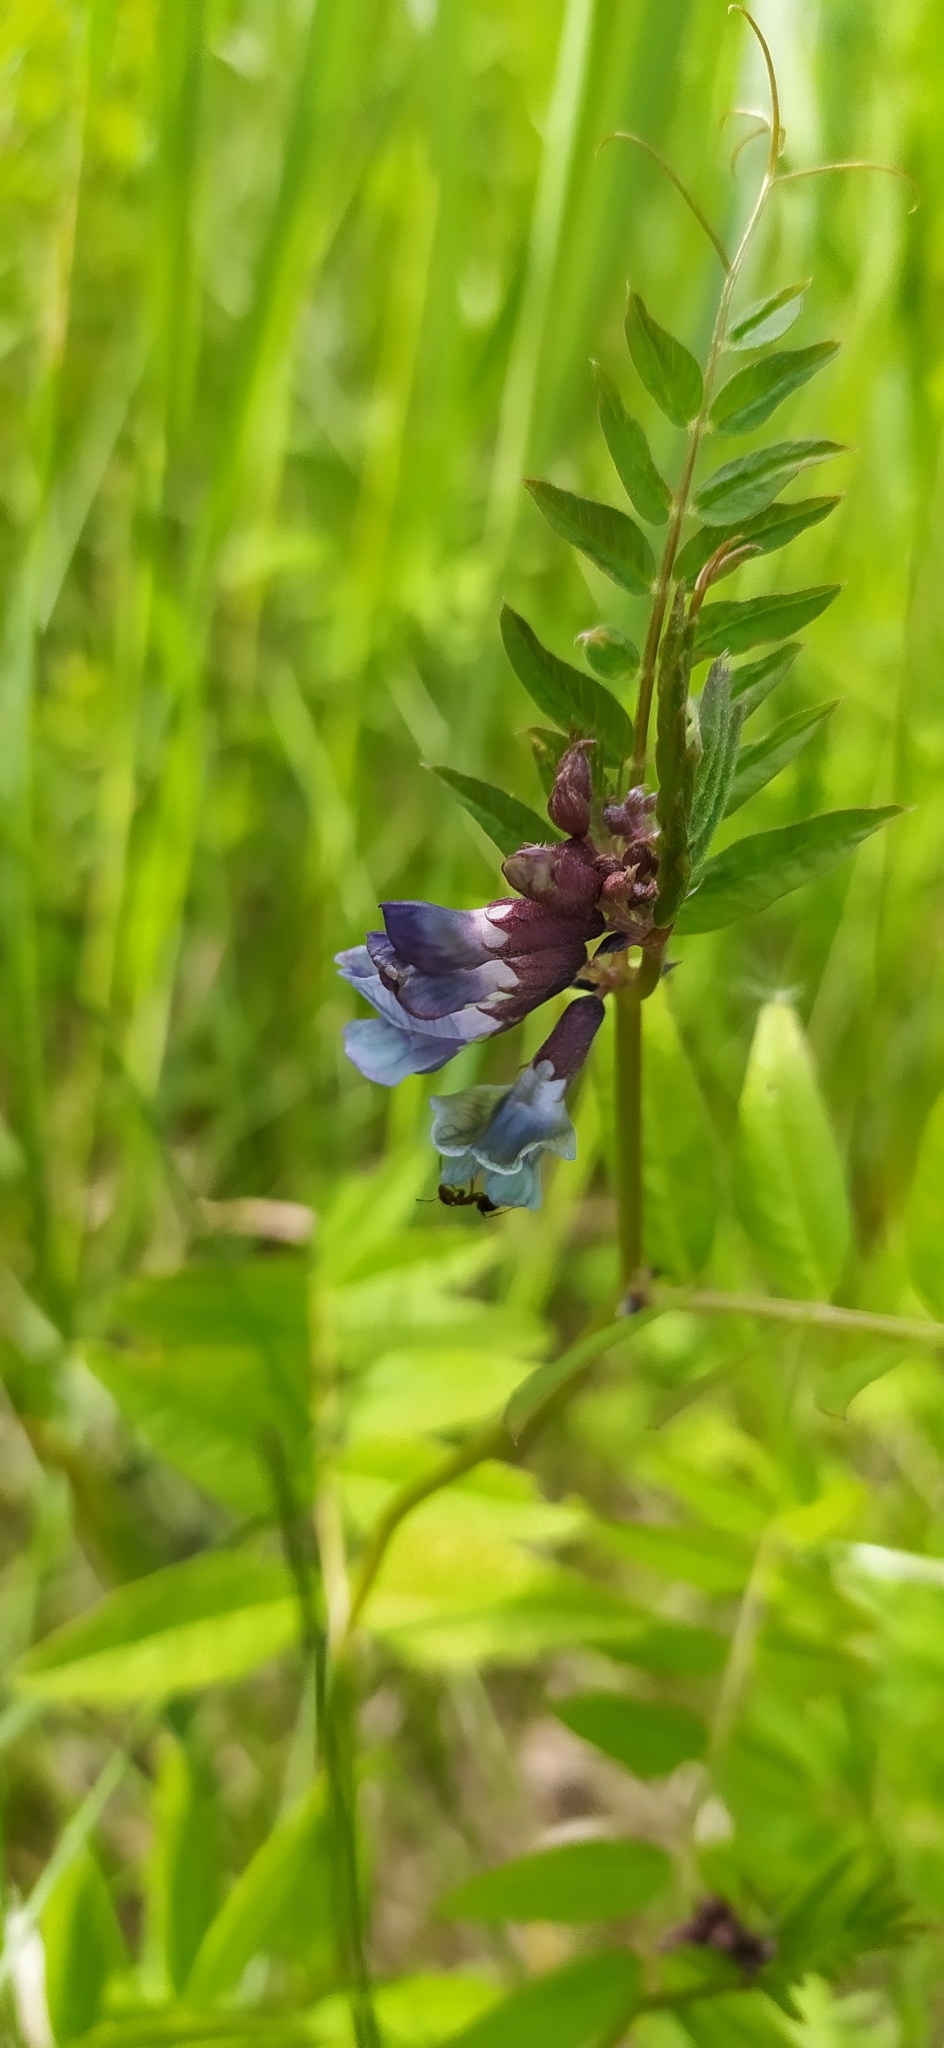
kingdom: Plantae
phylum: Tracheophyta
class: Magnoliopsida
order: Fabales
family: Fabaceae
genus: Vicia
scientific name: Vicia sepium
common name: Bush vetch
